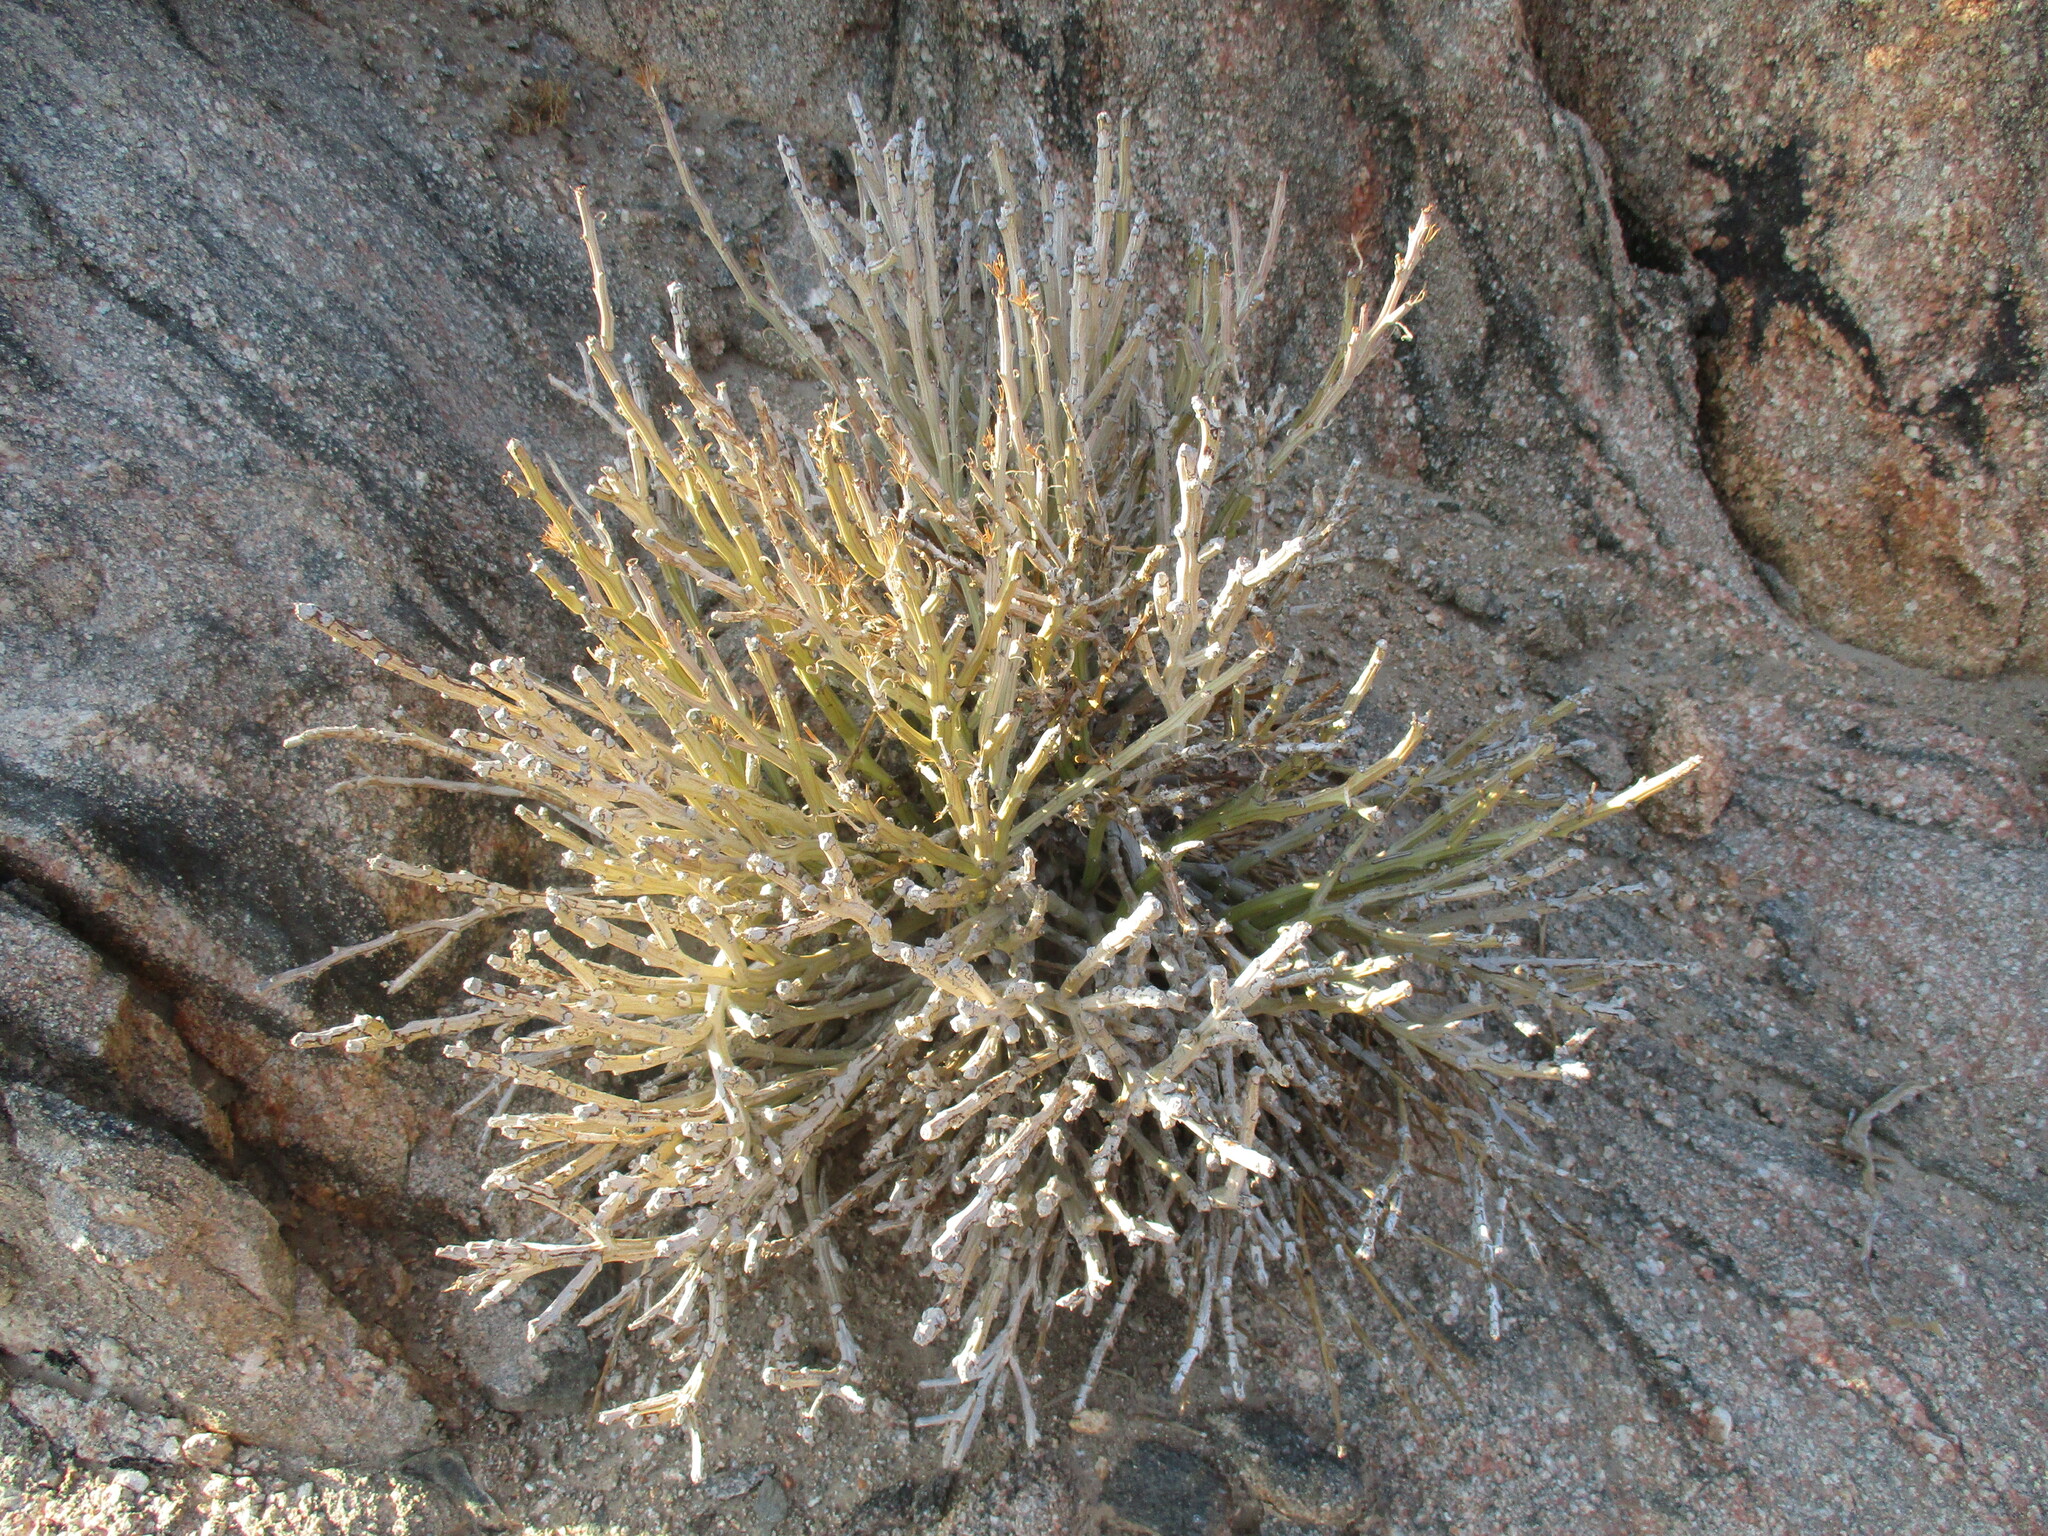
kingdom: Plantae
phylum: Tracheophyta
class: Magnoliopsida
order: Asterales
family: Asteraceae
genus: Curio
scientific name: Curio avasimontanus
